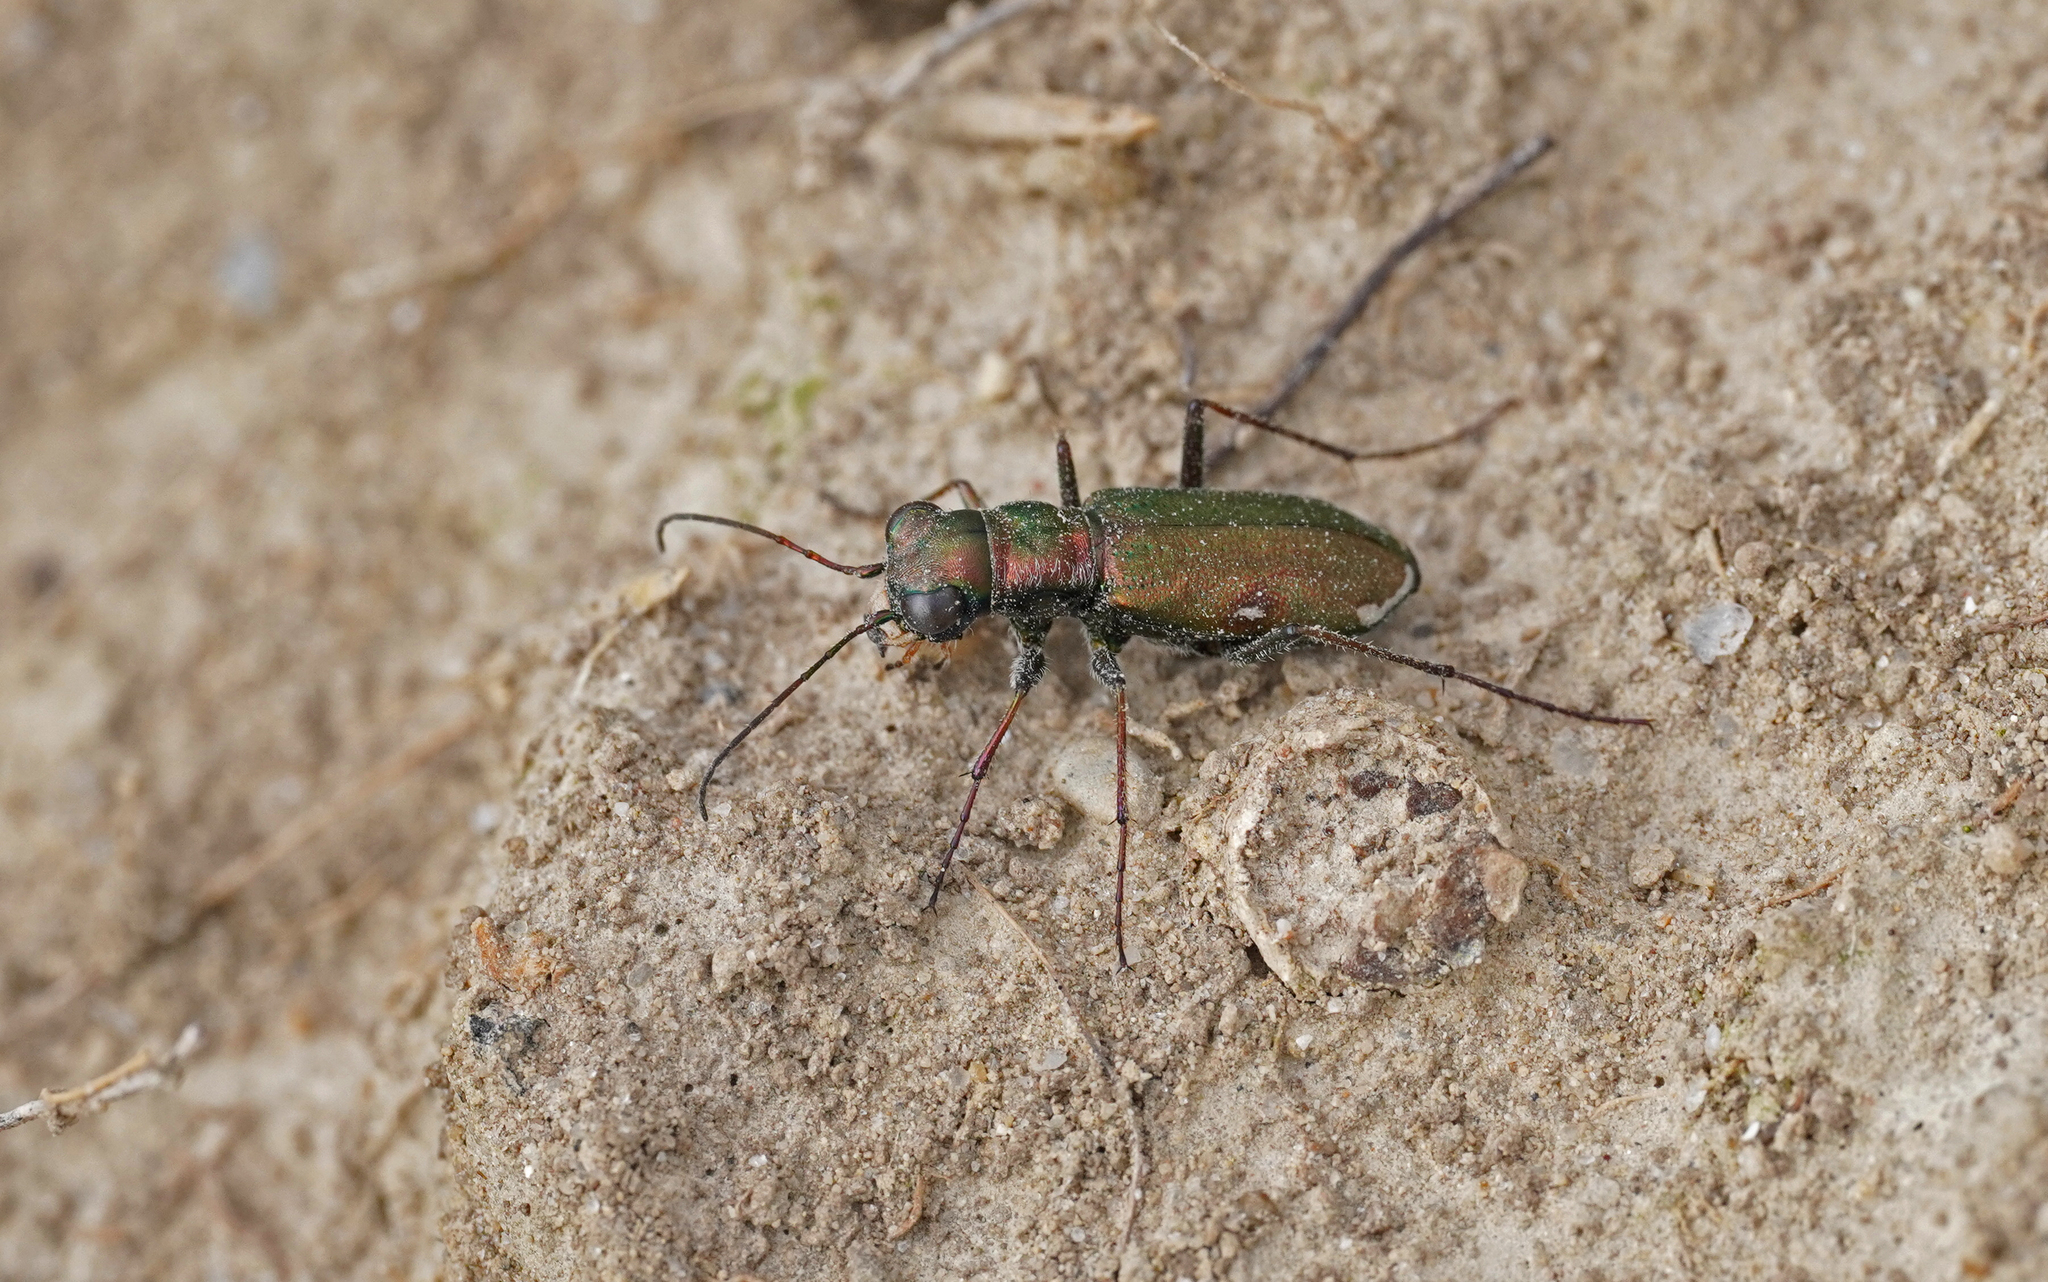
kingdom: Animalia
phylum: Arthropoda
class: Insecta
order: Coleoptera
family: Carabidae
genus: Cylindera
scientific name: Cylindera germanica
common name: Cliff tiger beetle
